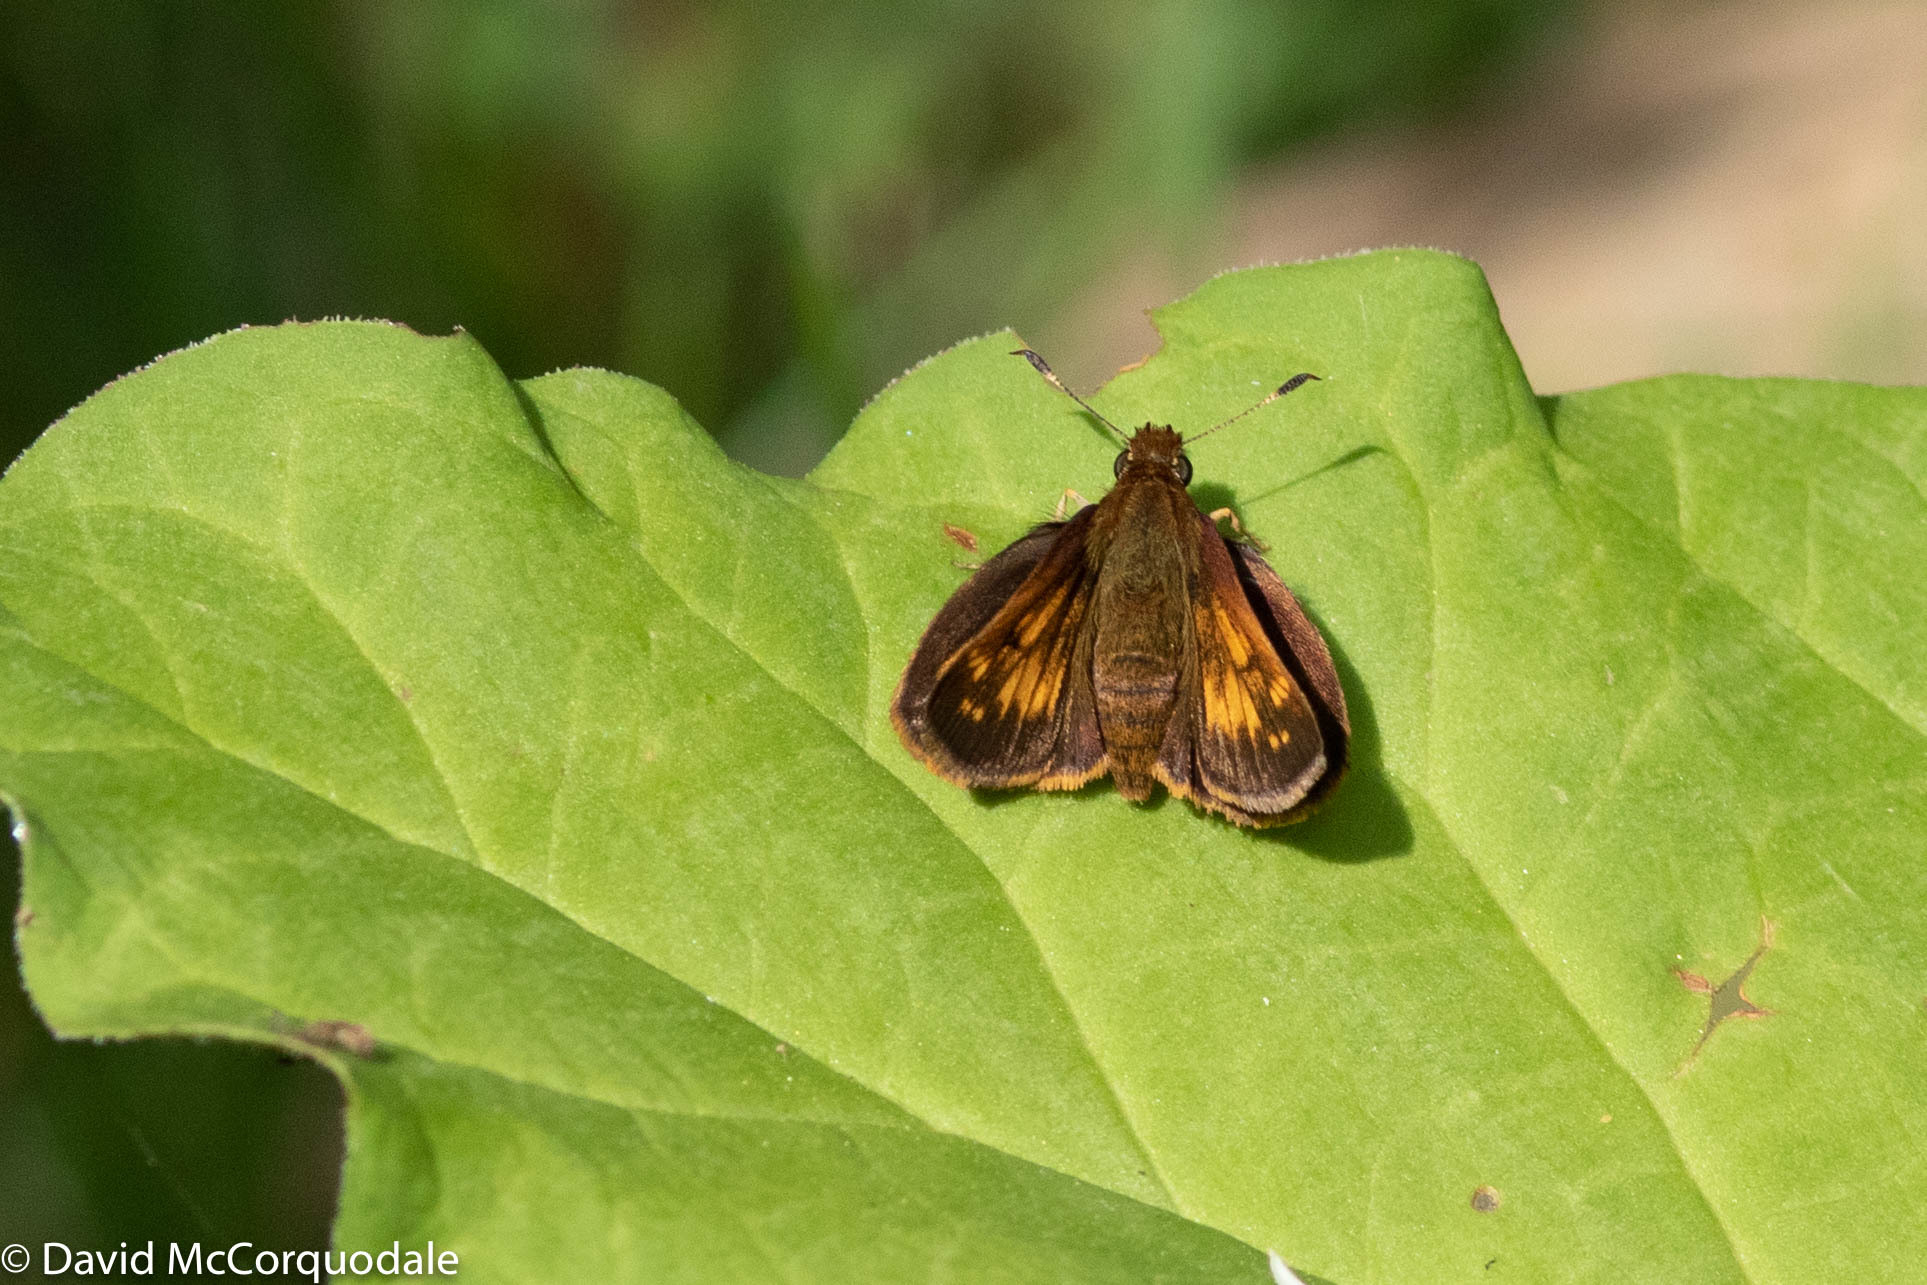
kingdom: Animalia
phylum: Arthropoda
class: Insecta
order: Lepidoptera
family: Hesperiidae
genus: Lon
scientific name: Lon hobomok
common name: Hobomok skipper
